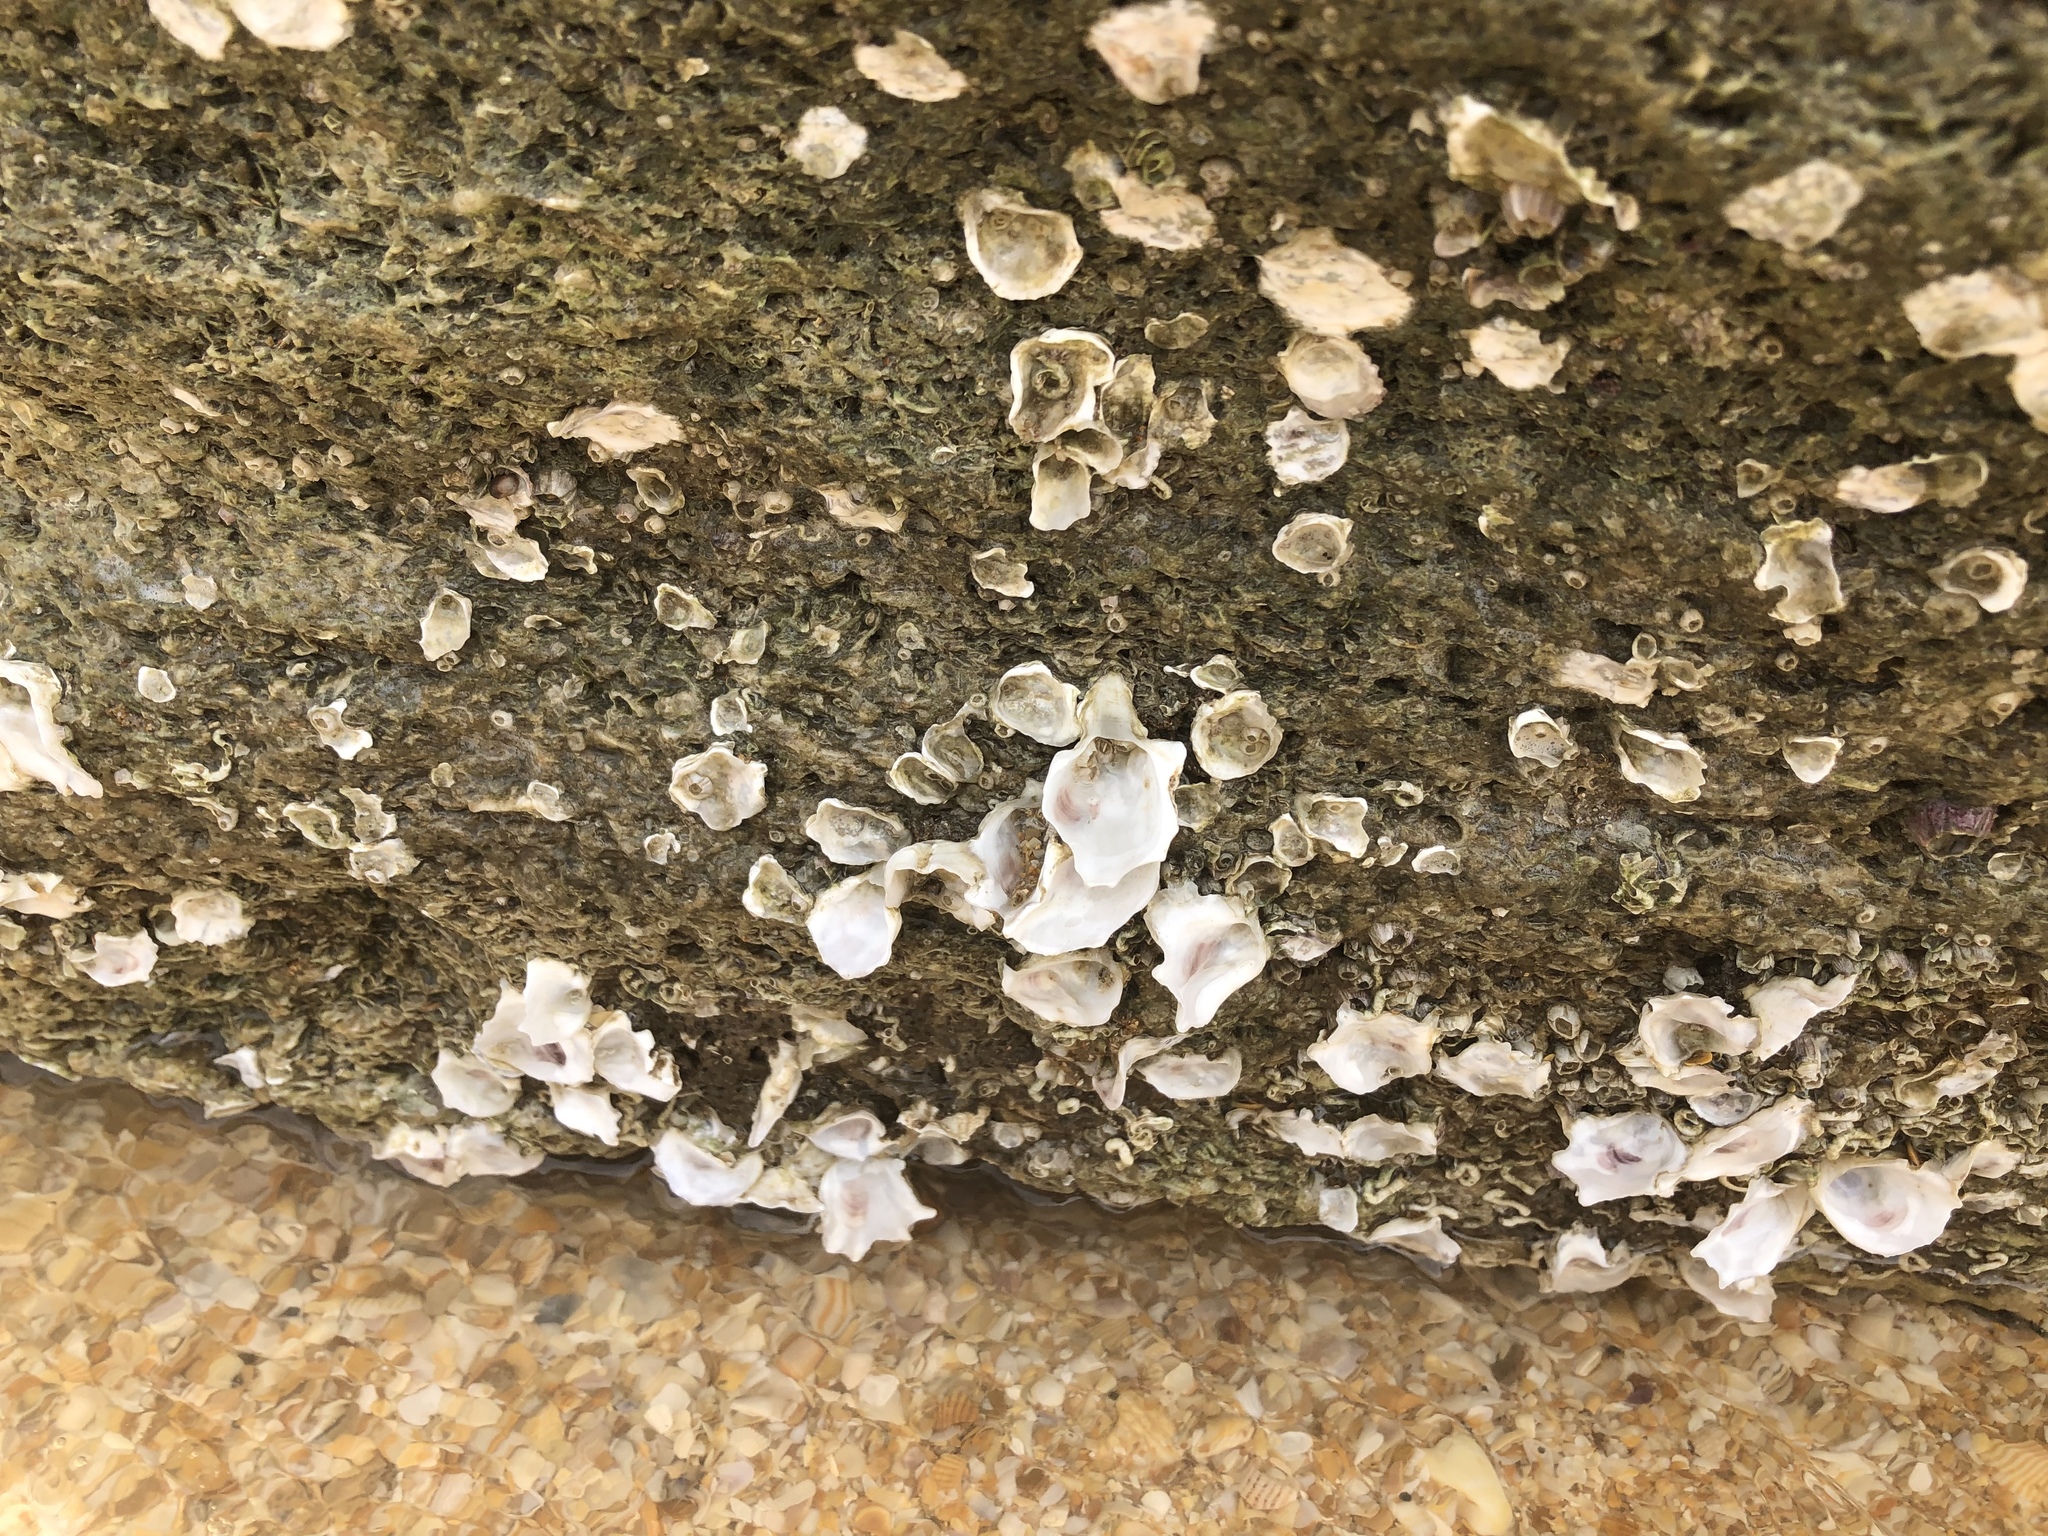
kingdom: Animalia
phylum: Mollusca
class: Bivalvia
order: Ostreida
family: Ostreidae
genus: Crassostrea
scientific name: Crassostrea virginica
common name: American oyster
